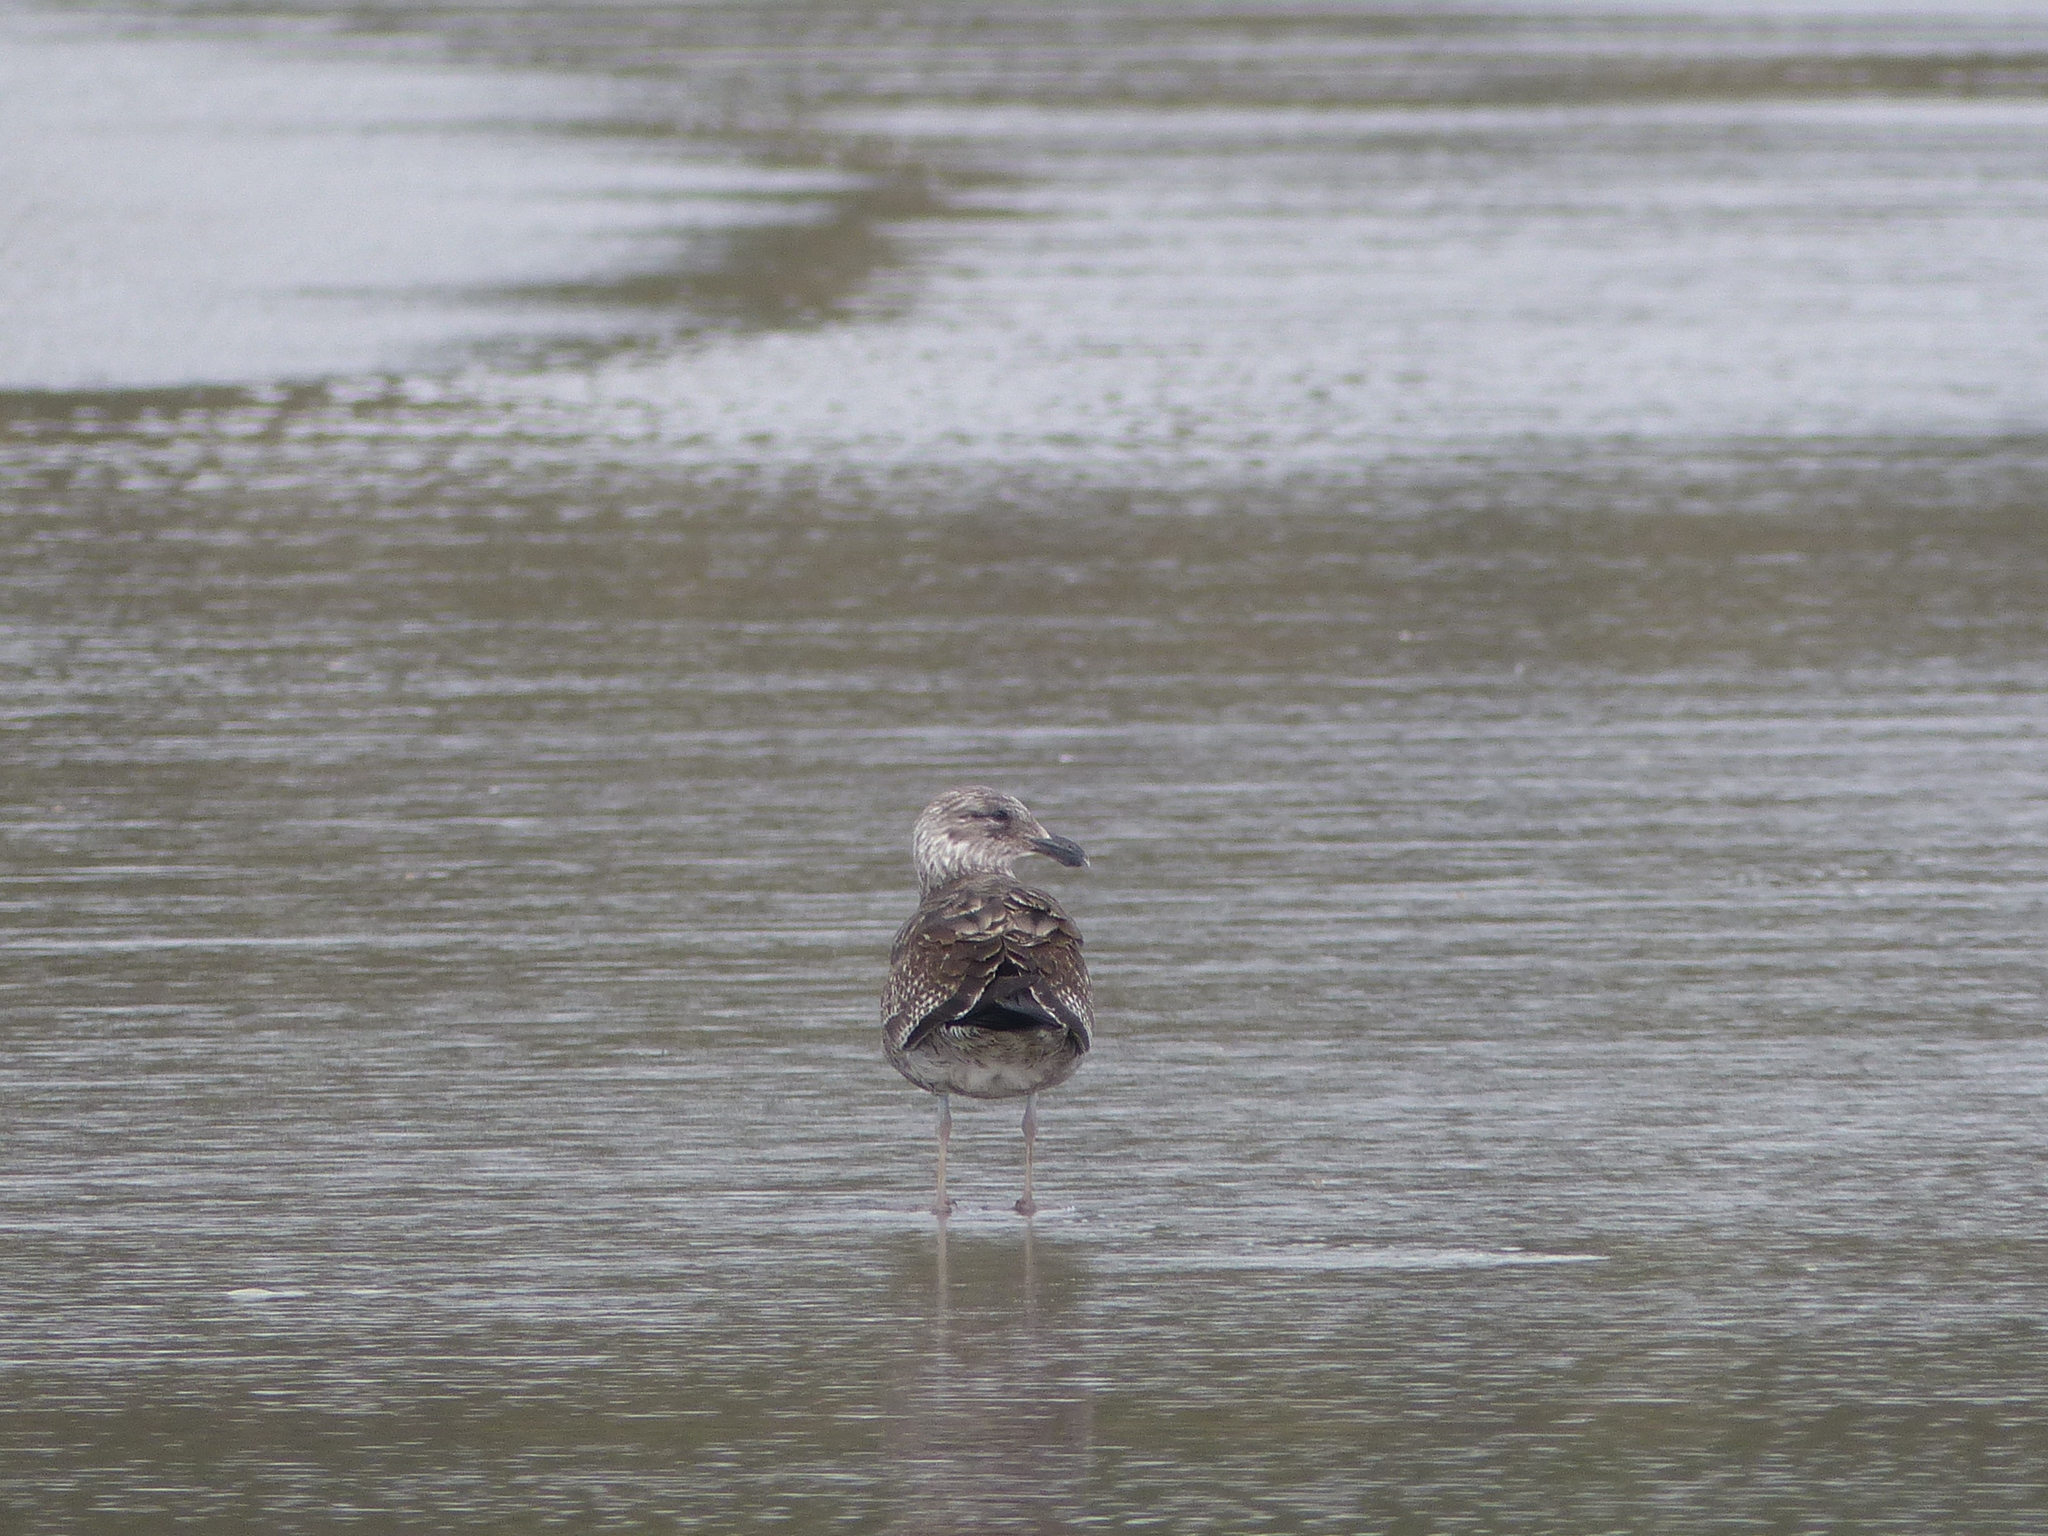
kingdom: Animalia
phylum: Chordata
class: Aves
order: Charadriiformes
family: Laridae
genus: Larus
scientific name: Larus dominicanus
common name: Kelp gull
